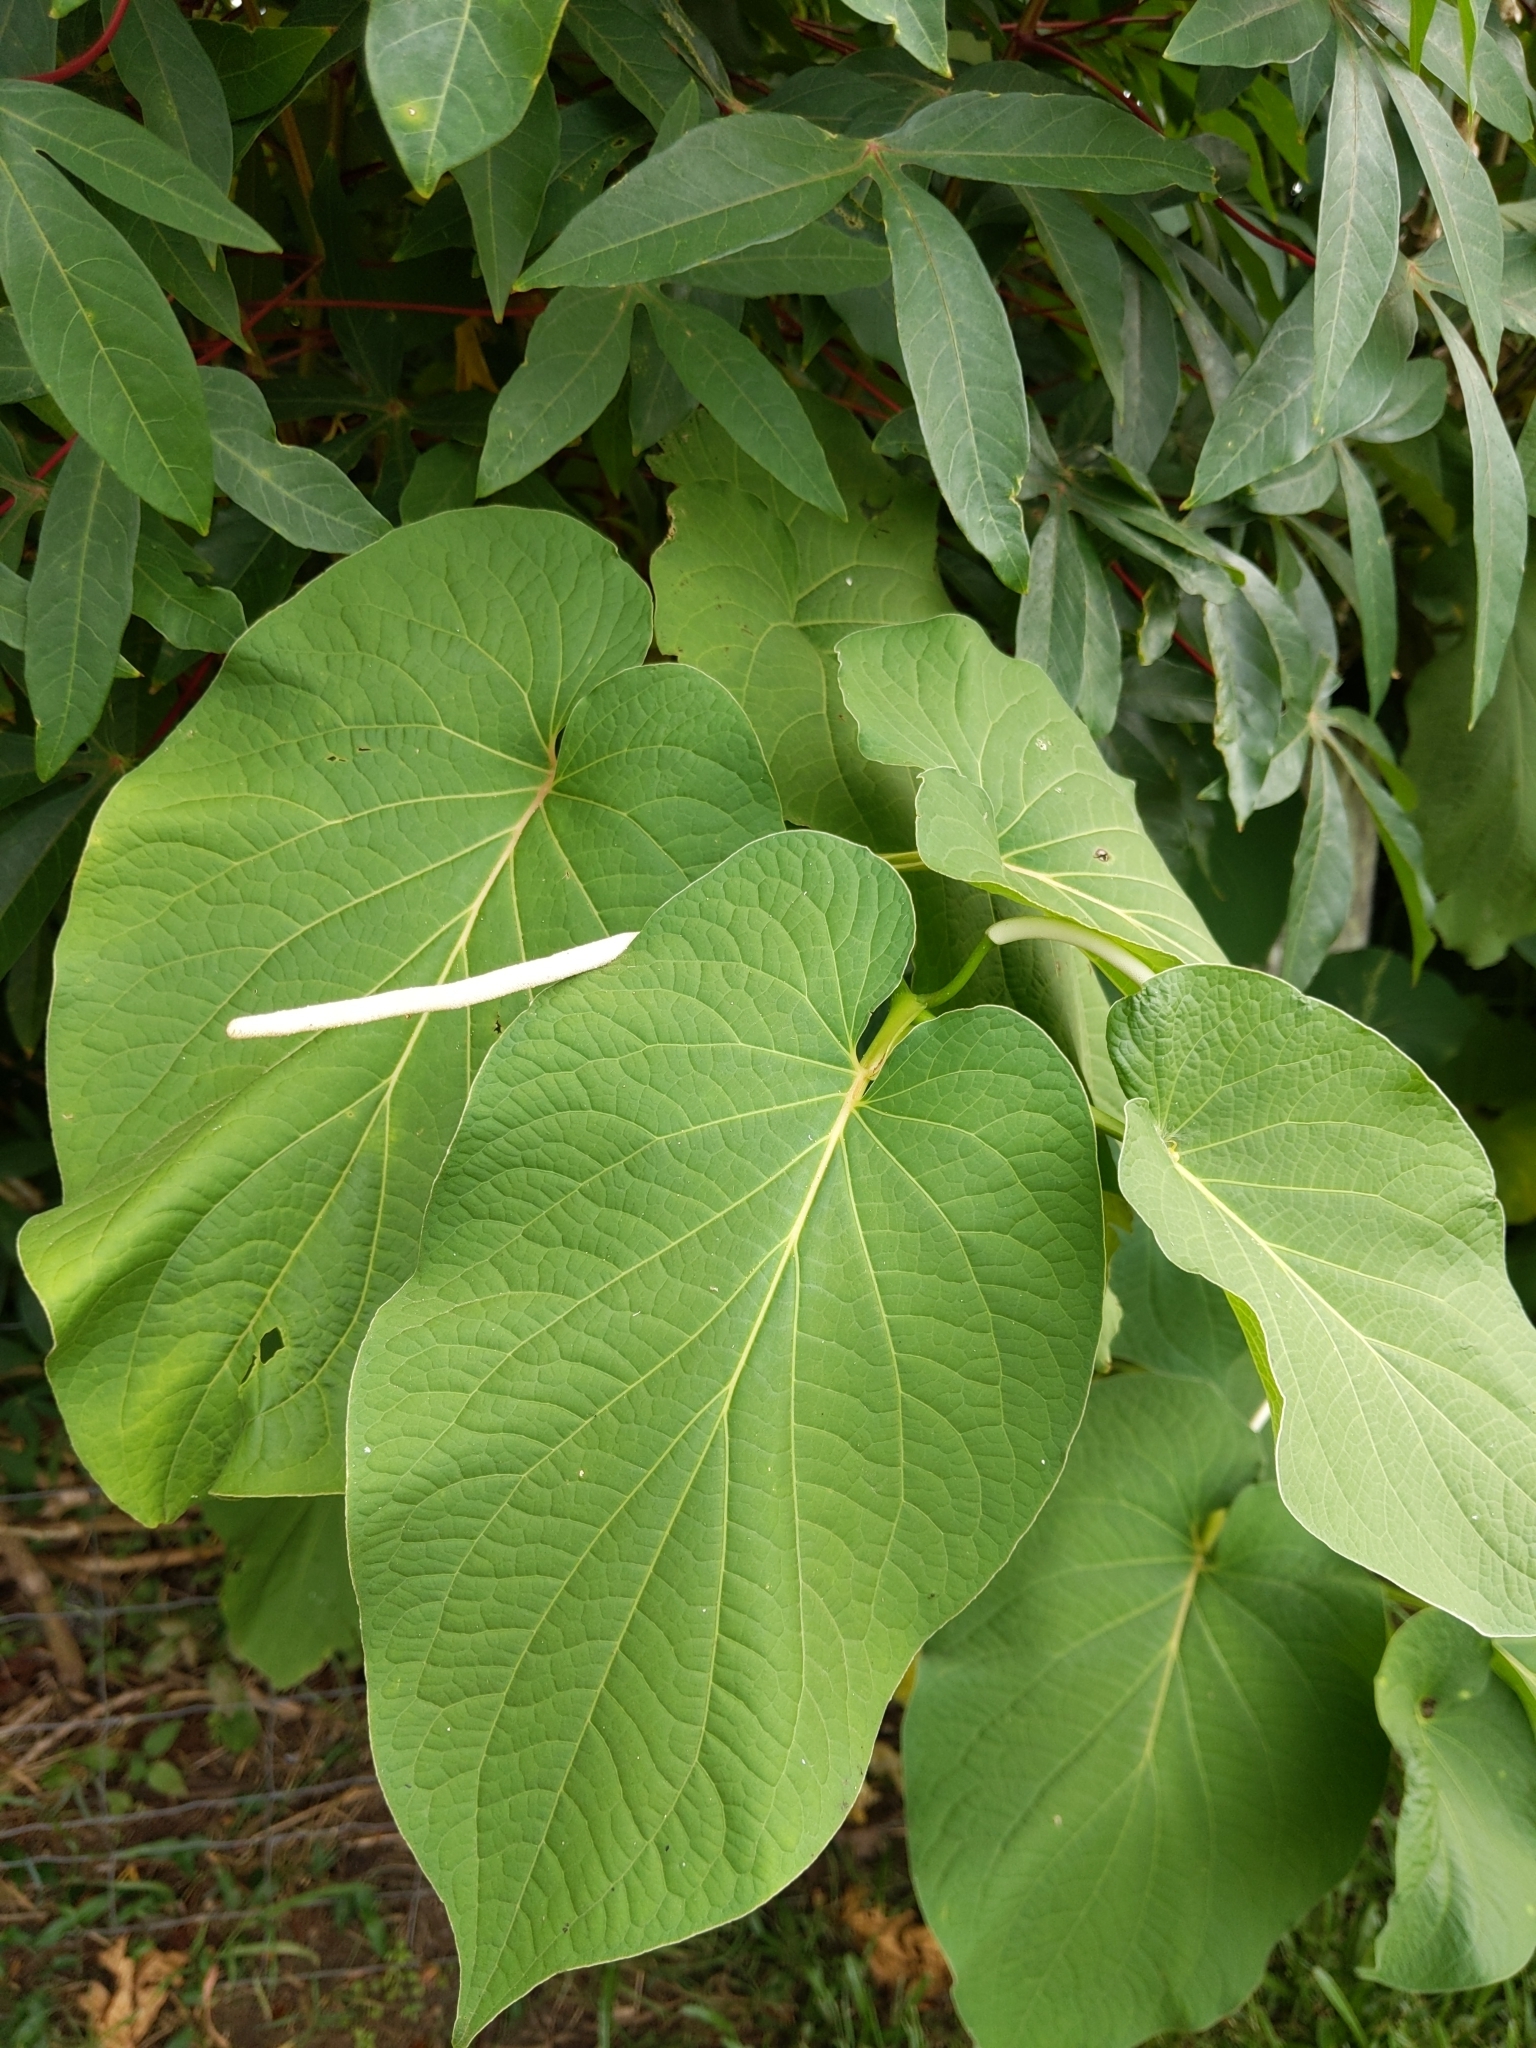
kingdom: Plantae
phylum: Tracheophyta
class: Magnoliopsida
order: Piperales
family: Piperaceae
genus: Piper
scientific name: Piper auritum
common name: Vera cruz pepper
